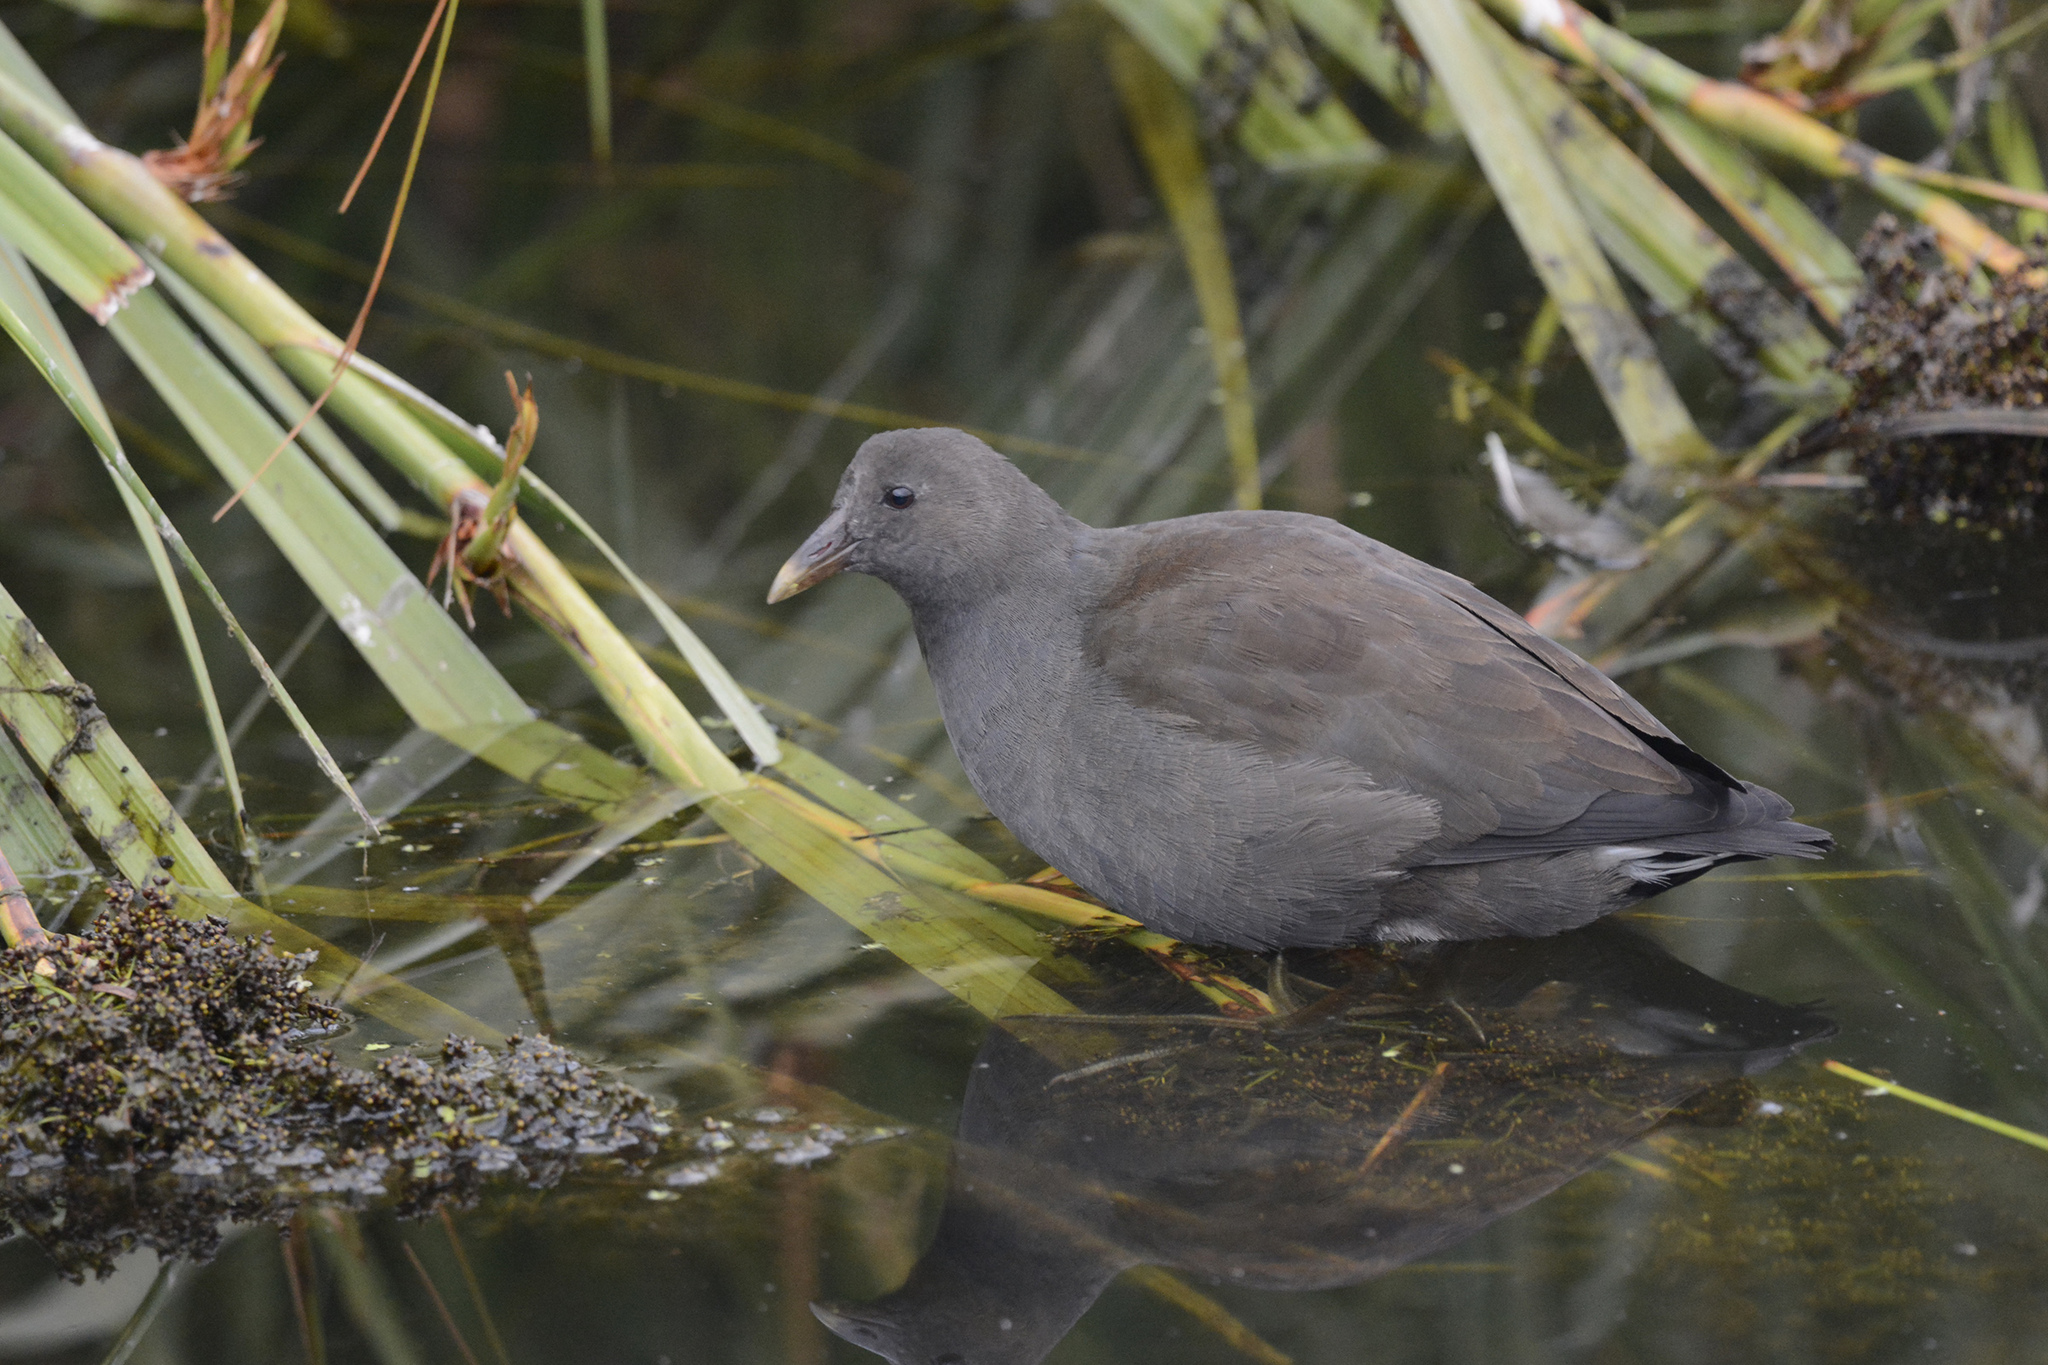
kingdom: Animalia
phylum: Chordata
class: Aves
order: Gruiformes
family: Rallidae
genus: Gallinula
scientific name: Gallinula tenebrosa
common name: Dusky moorhen
